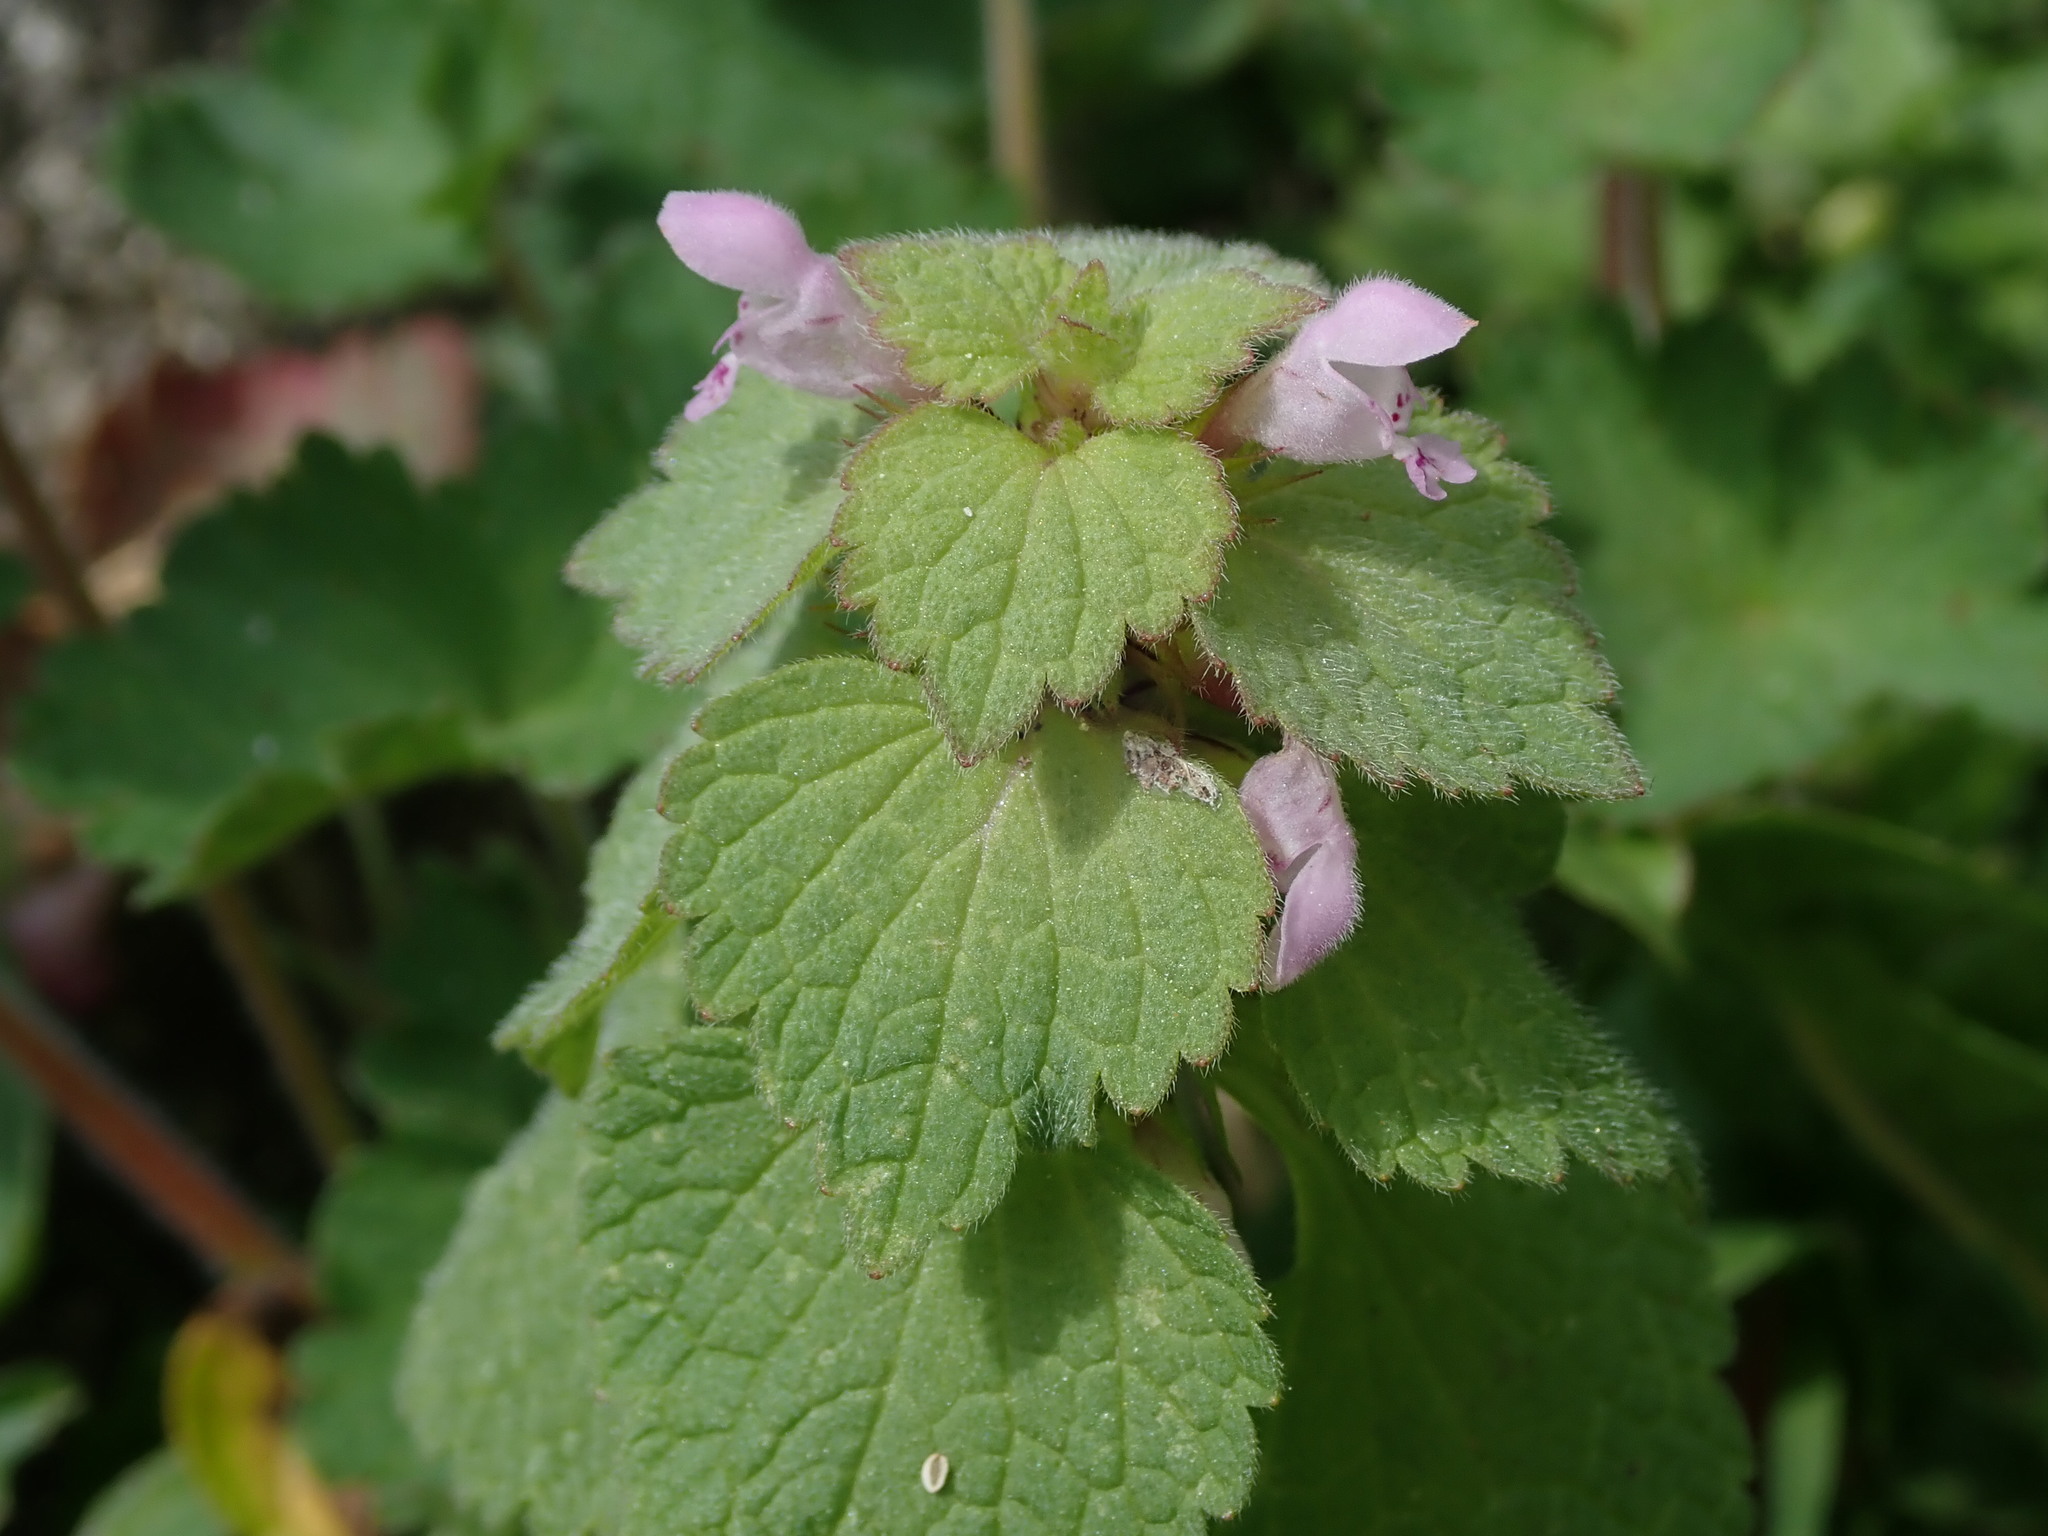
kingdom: Plantae
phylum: Tracheophyta
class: Magnoliopsida
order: Lamiales
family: Lamiaceae
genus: Lamium
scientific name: Lamium purpureum
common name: Red dead-nettle
